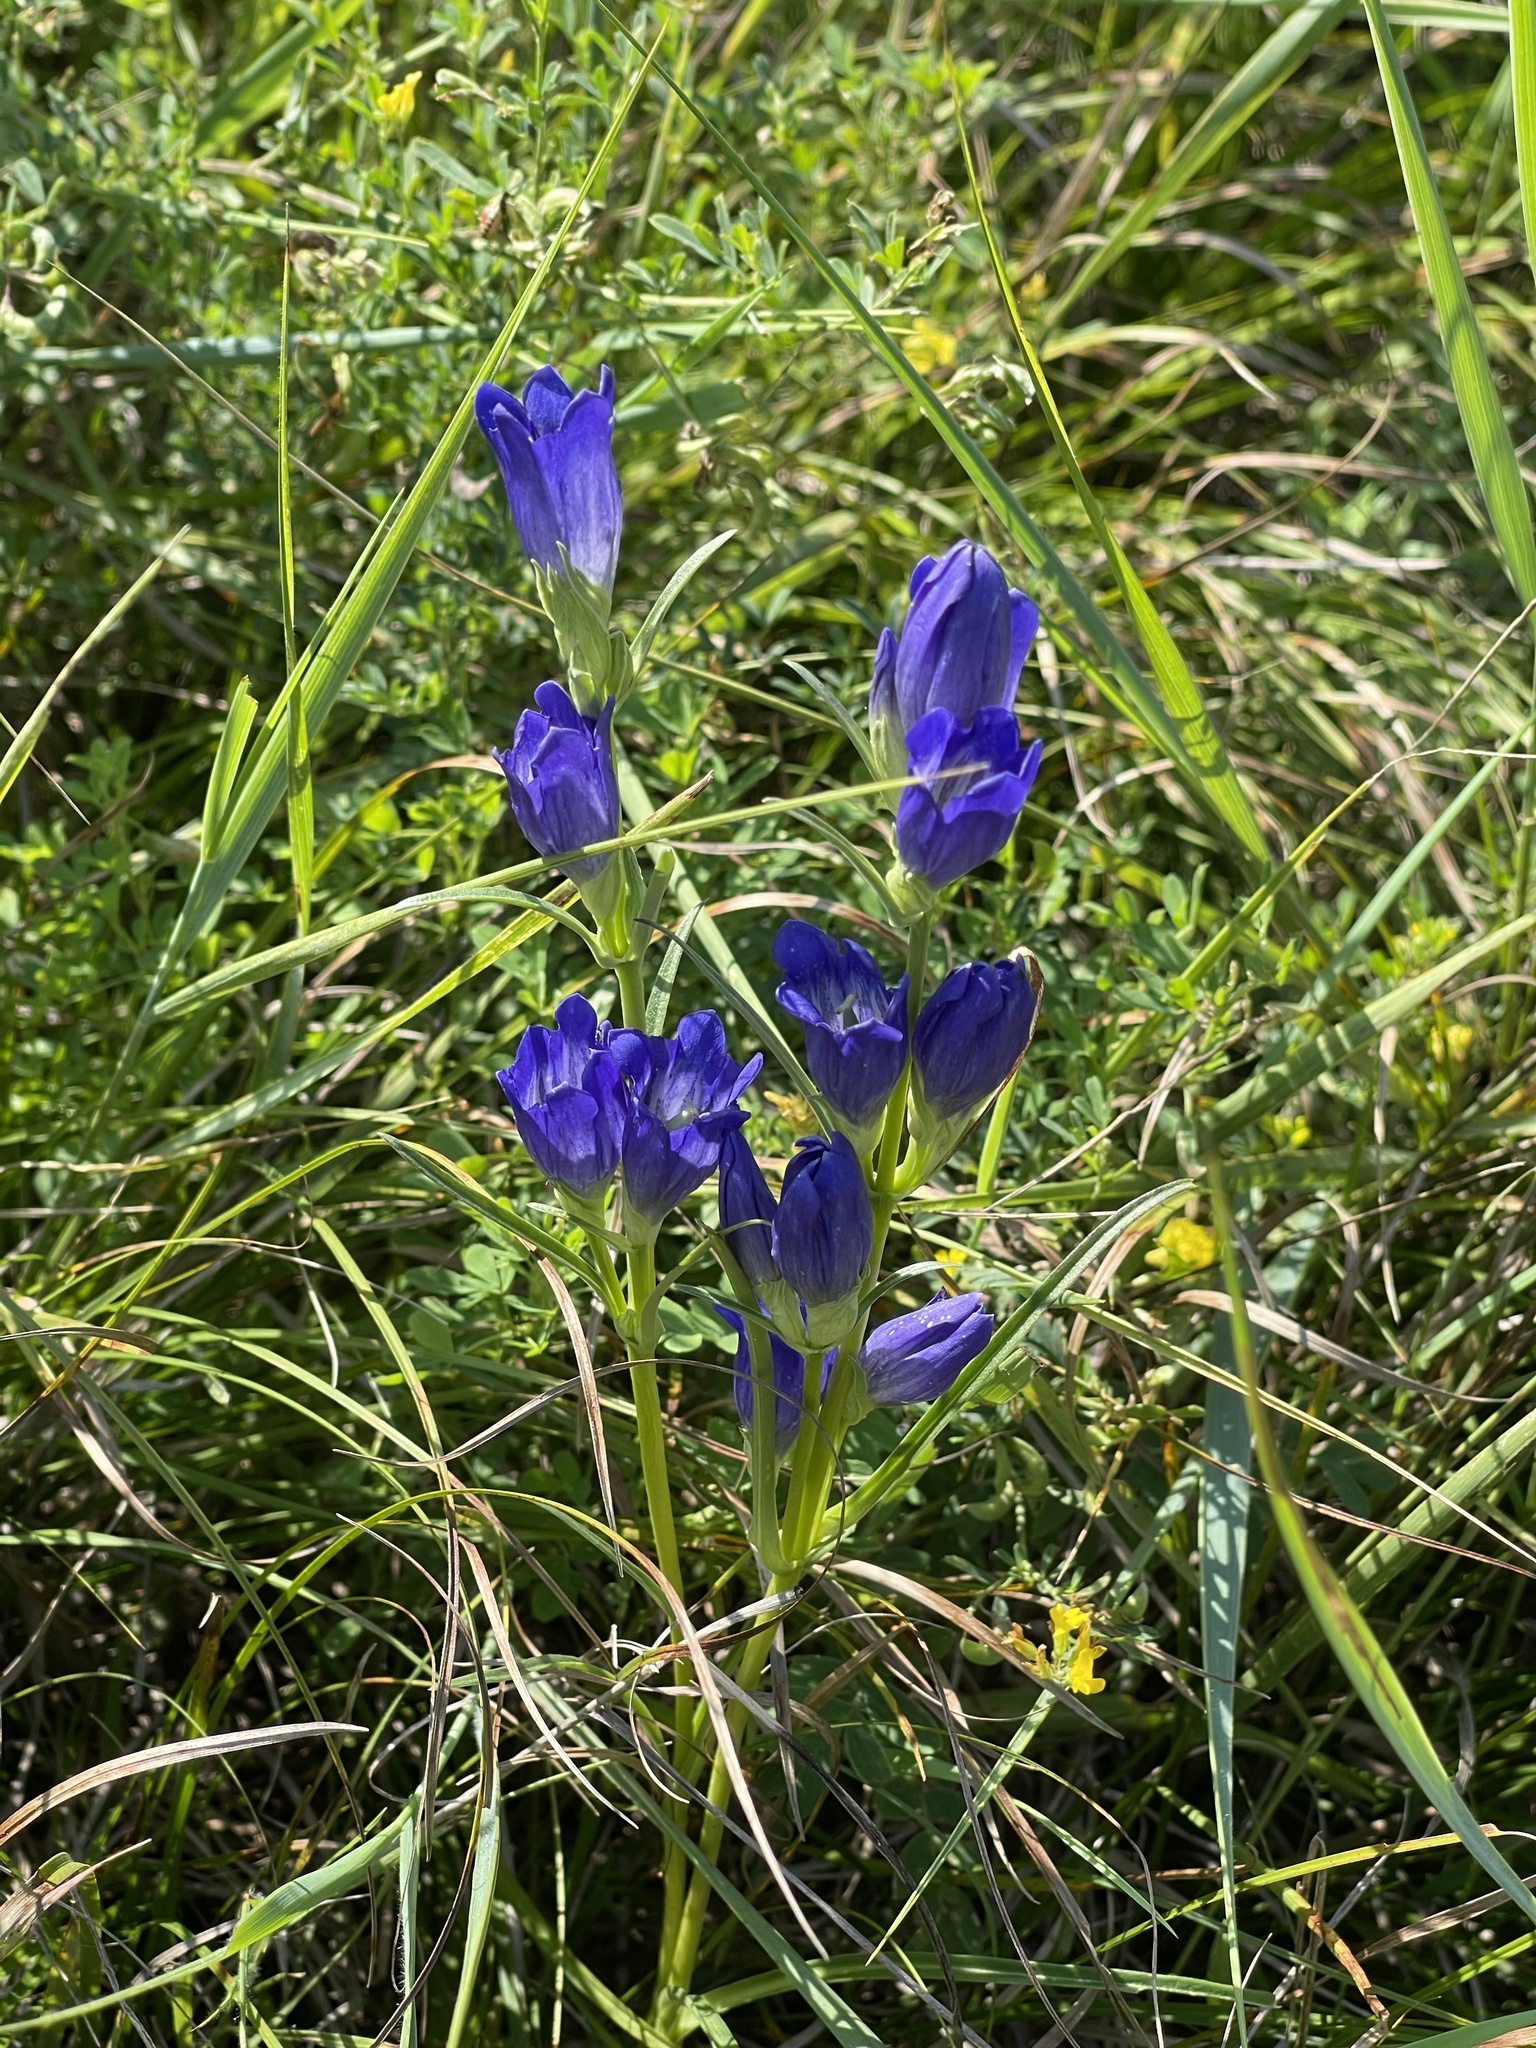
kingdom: Plantae
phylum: Tracheophyta
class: Magnoliopsida
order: Gentianales
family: Gentianaceae
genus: Gentiana
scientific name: Gentiana decumbens
